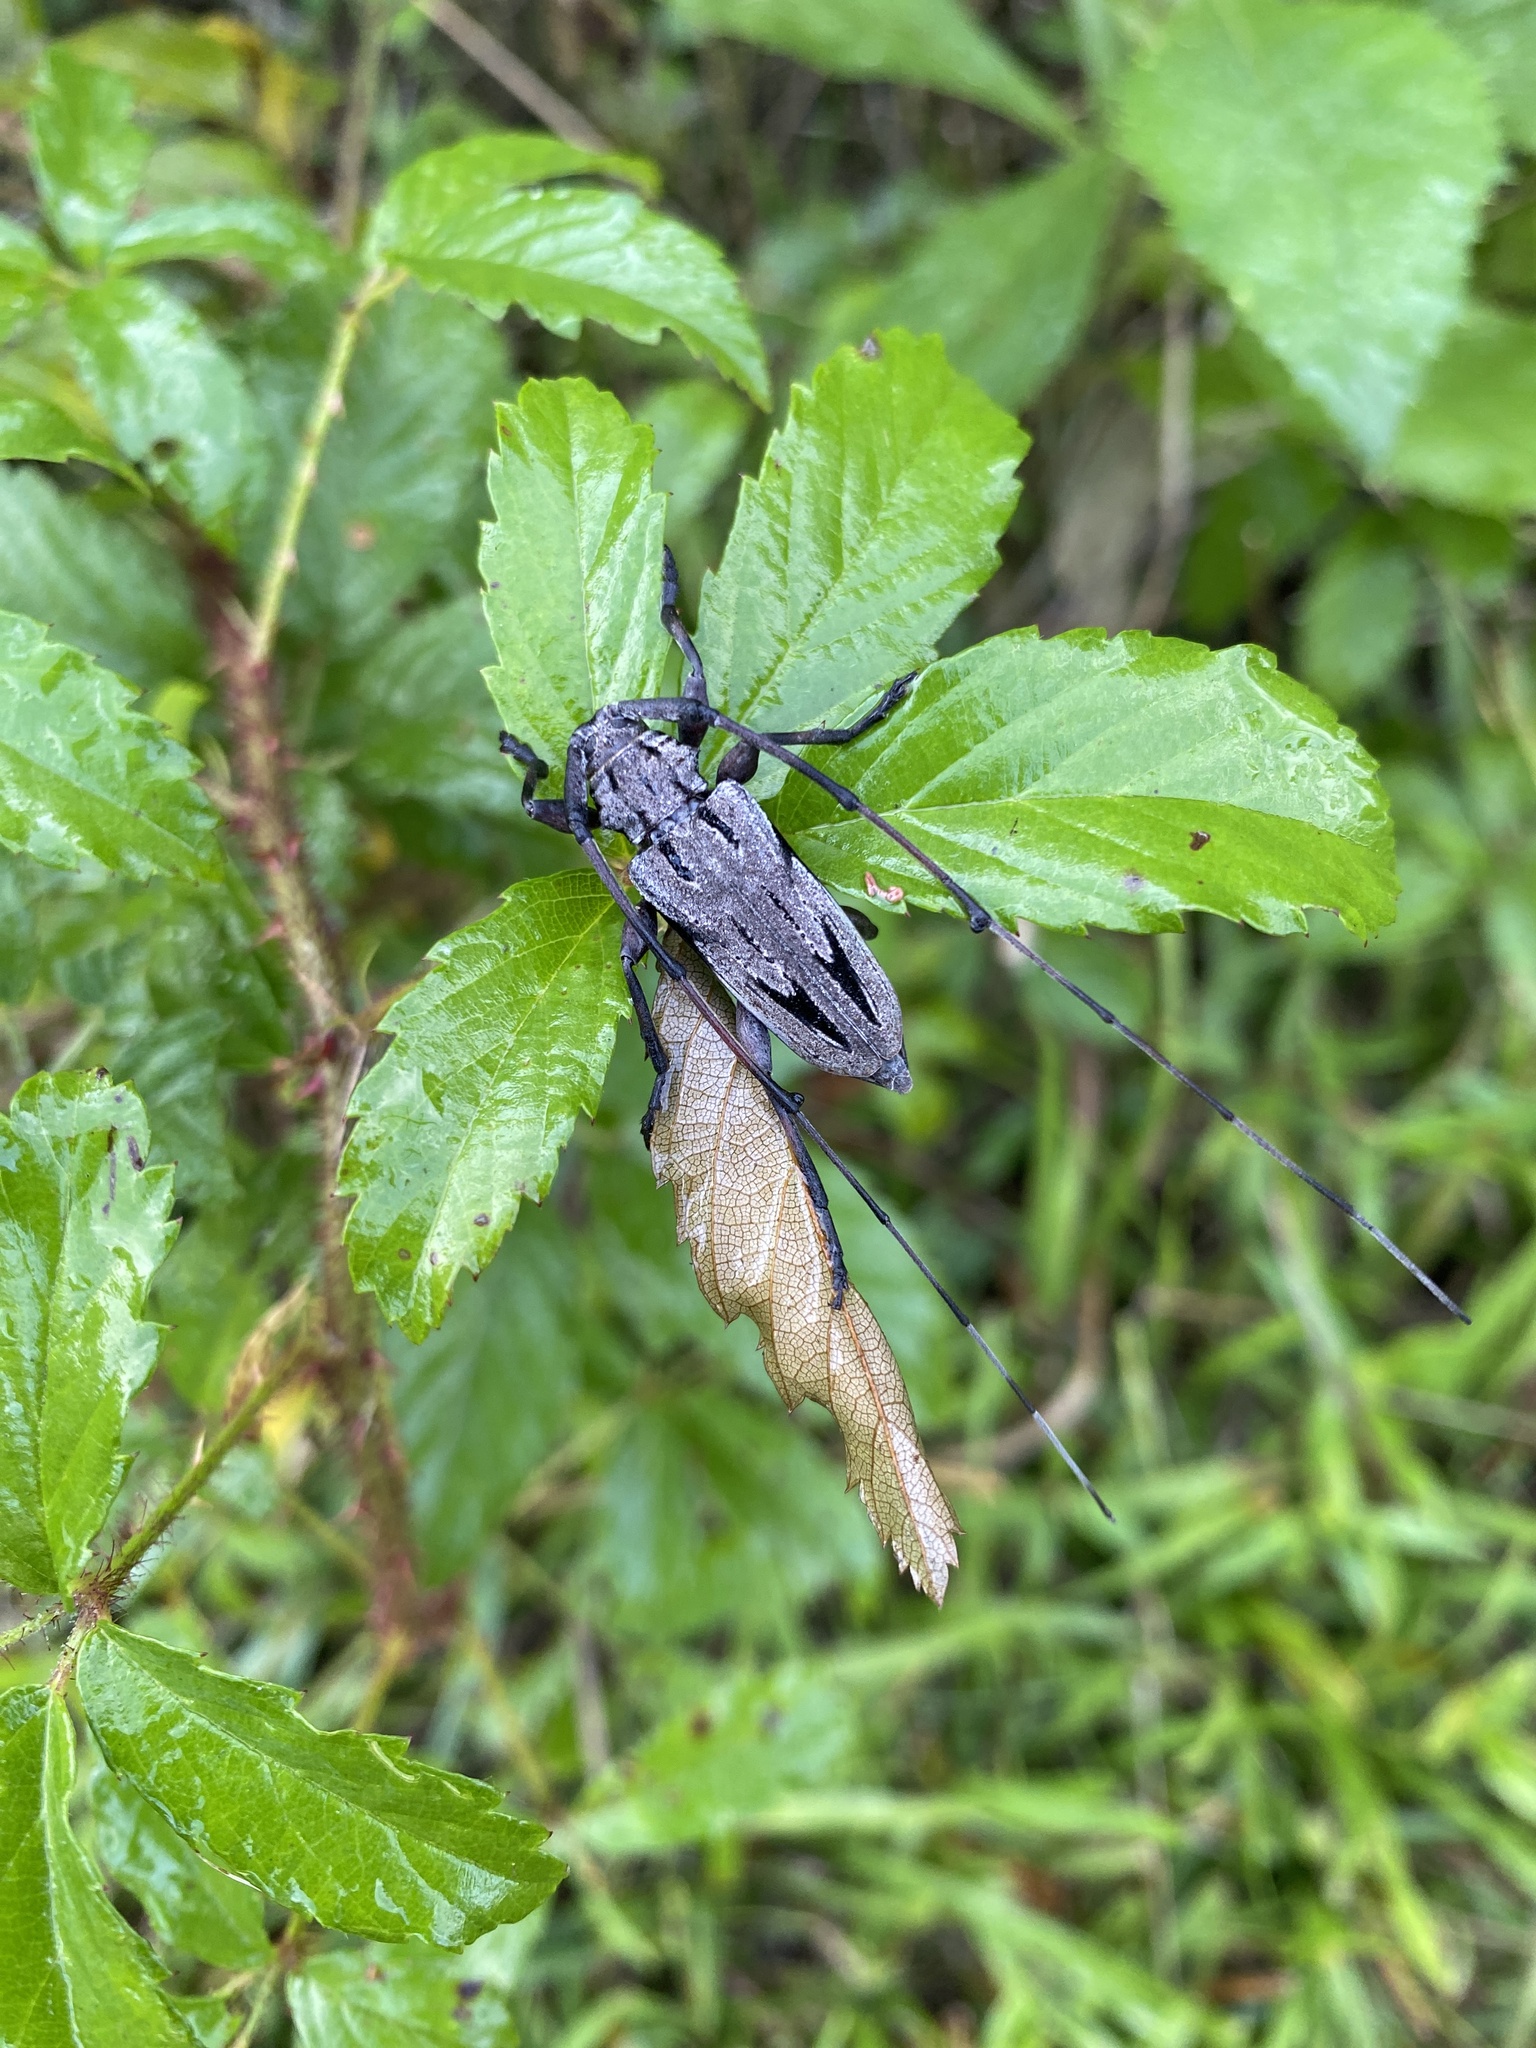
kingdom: Animalia
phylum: Arthropoda
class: Insecta
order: Coleoptera
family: Cerambycidae
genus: Acanthocinus
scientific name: Acanthocinus nodosus
